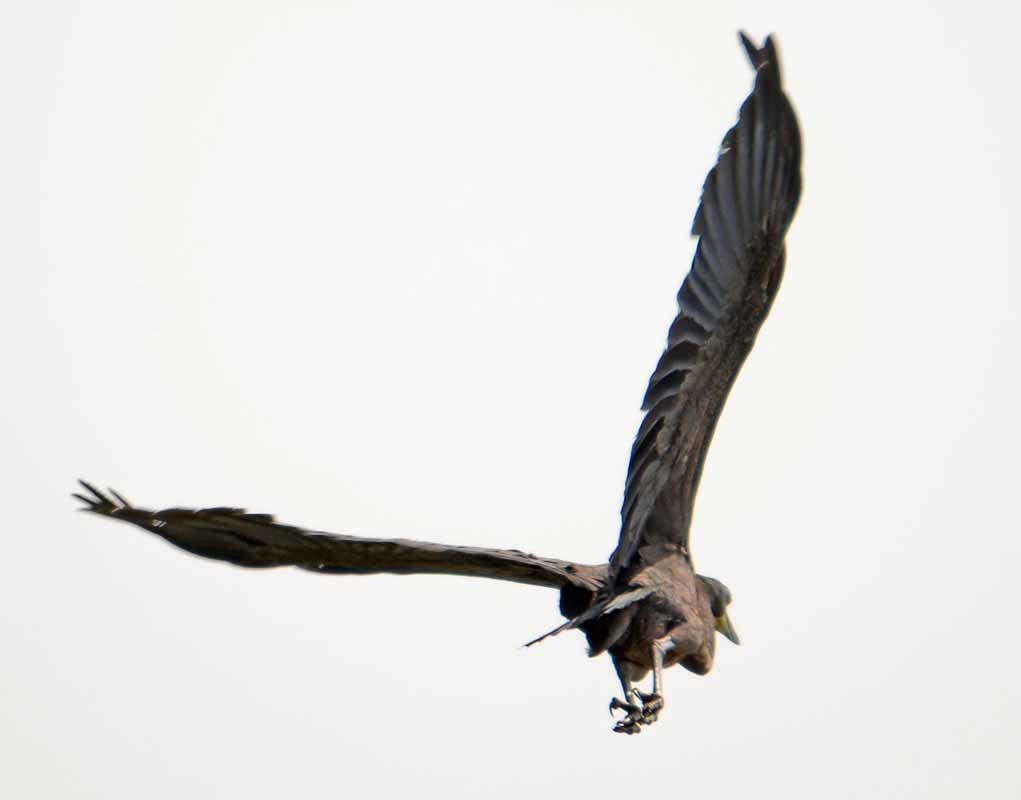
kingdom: Animalia
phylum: Chordata
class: Aves
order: Pelecaniformes
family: Ardeidae
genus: Tigrisoma
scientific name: Tigrisoma mexicanum
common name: Bare-throated tiger-heron
